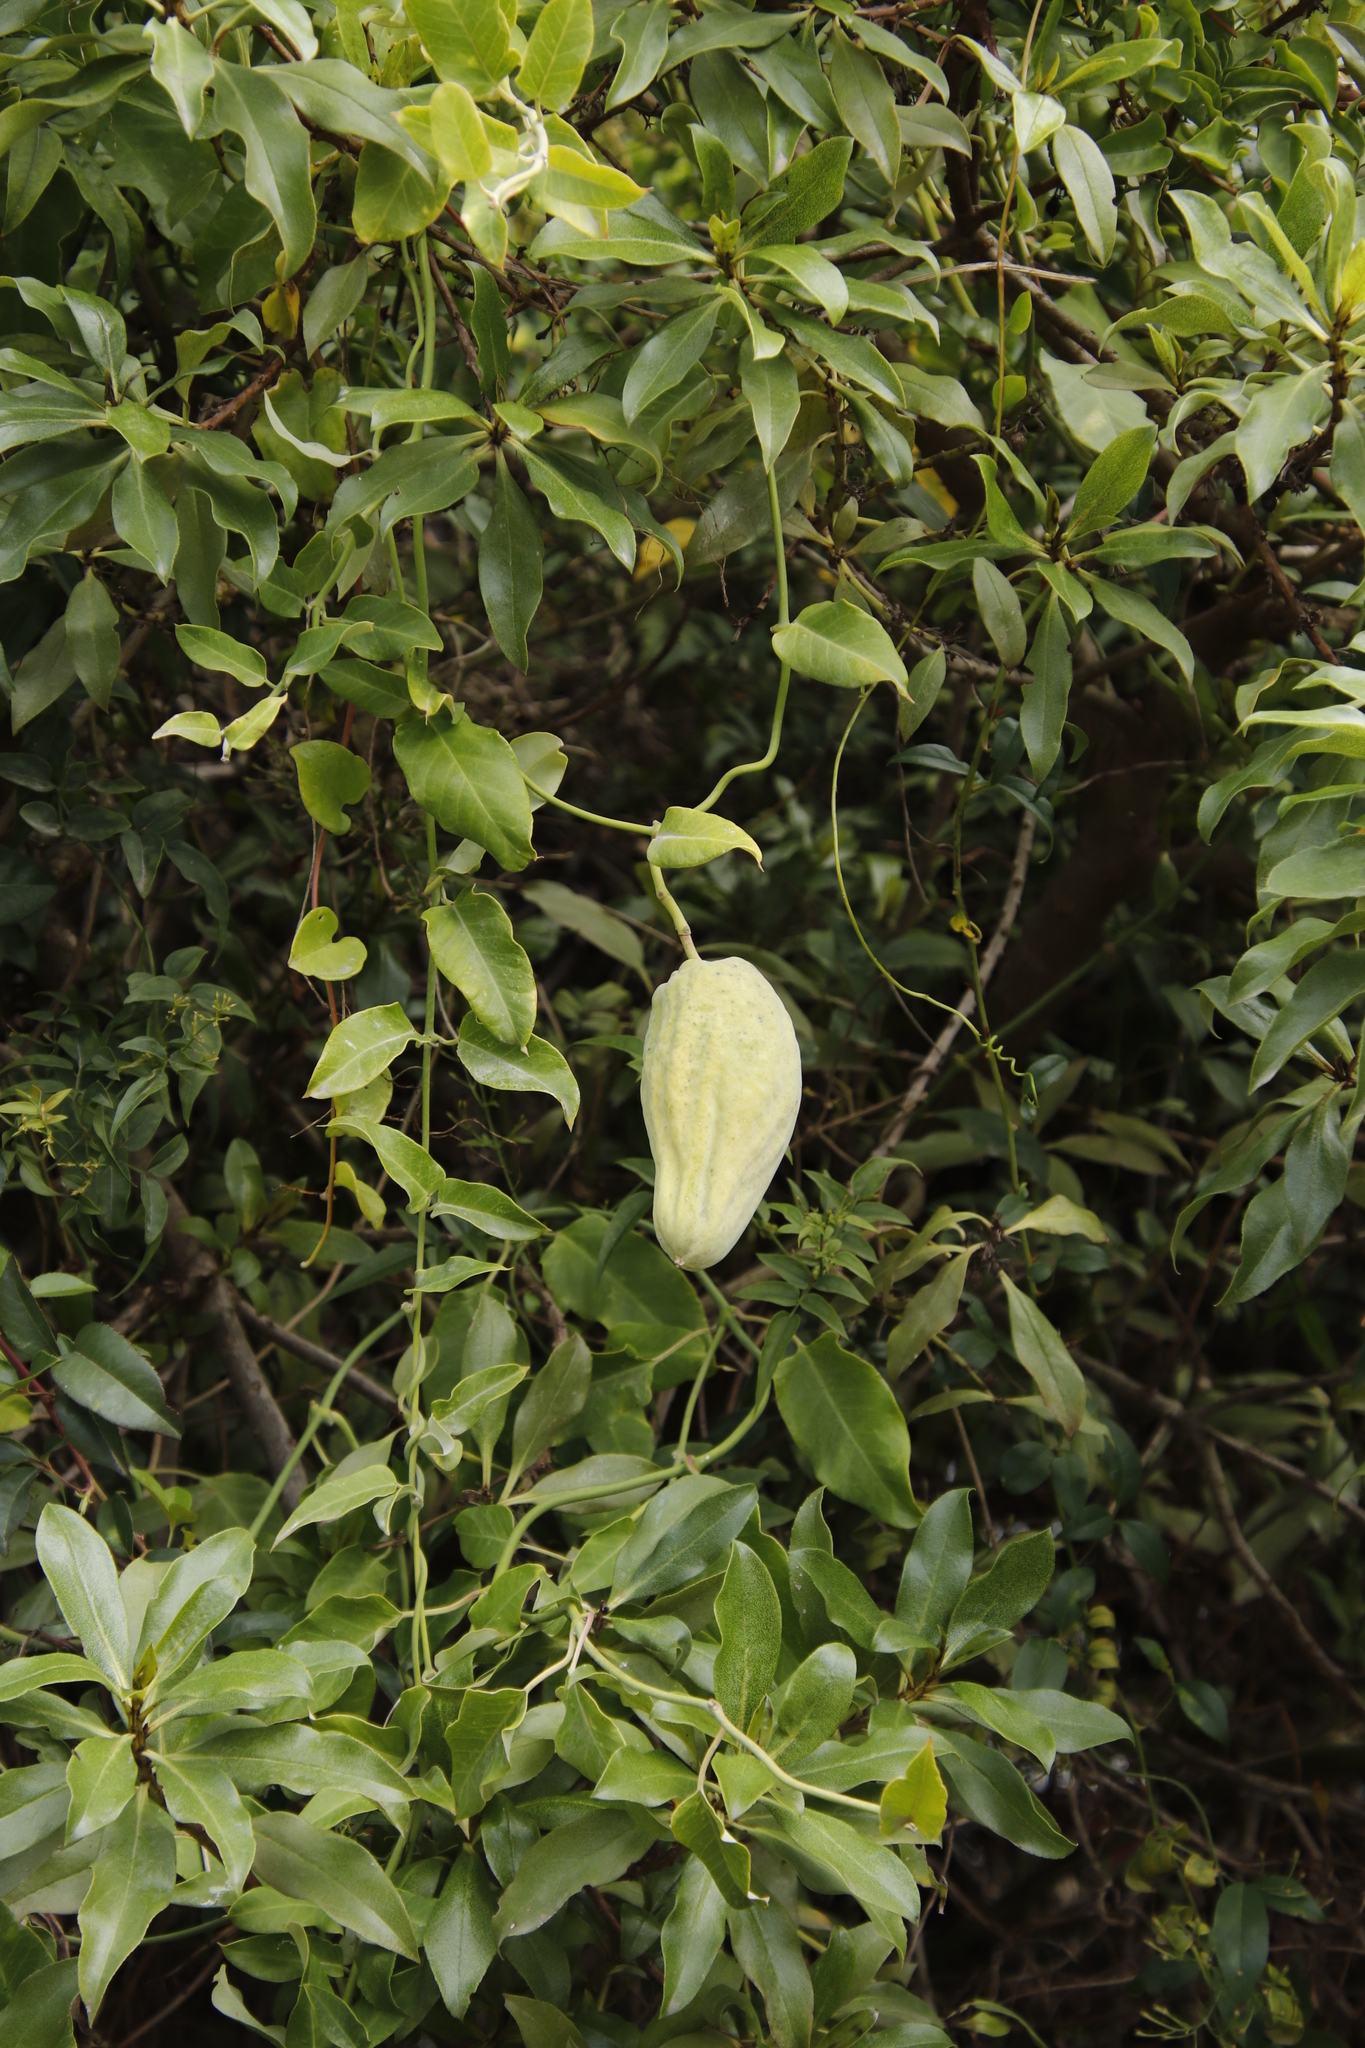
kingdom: Plantae
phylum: Tracheophyta
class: Magnoliopsida
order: Gentianales
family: Apocynaceae
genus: Araujia
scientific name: Araujia sericifera
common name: White bladderflower
